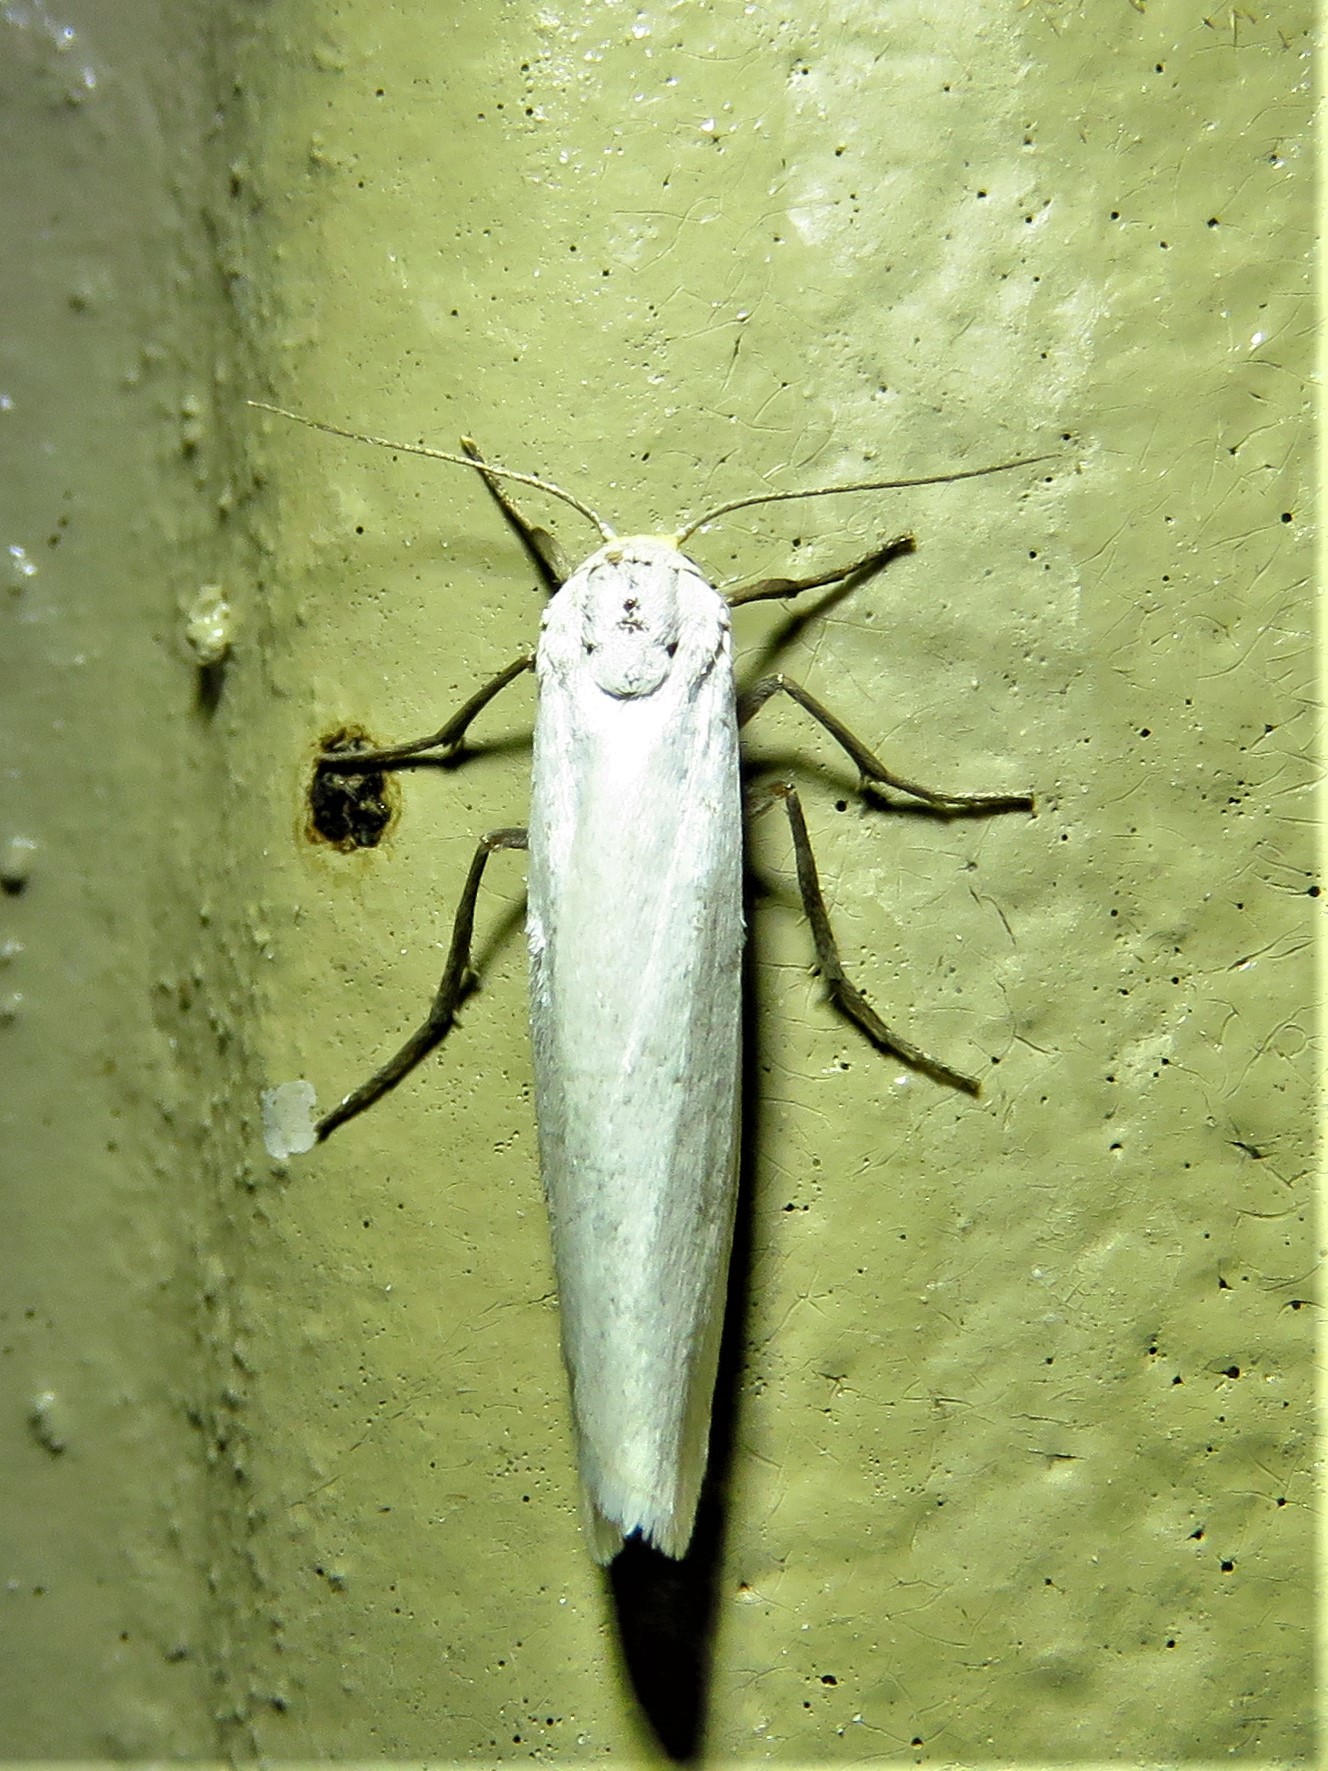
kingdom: Animalia
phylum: Arthropoda
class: Insecta
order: Lepidoptera
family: Erebidae
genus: Crambidia
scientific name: Crambidia cephalica
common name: Yellow-headed lichen moth
